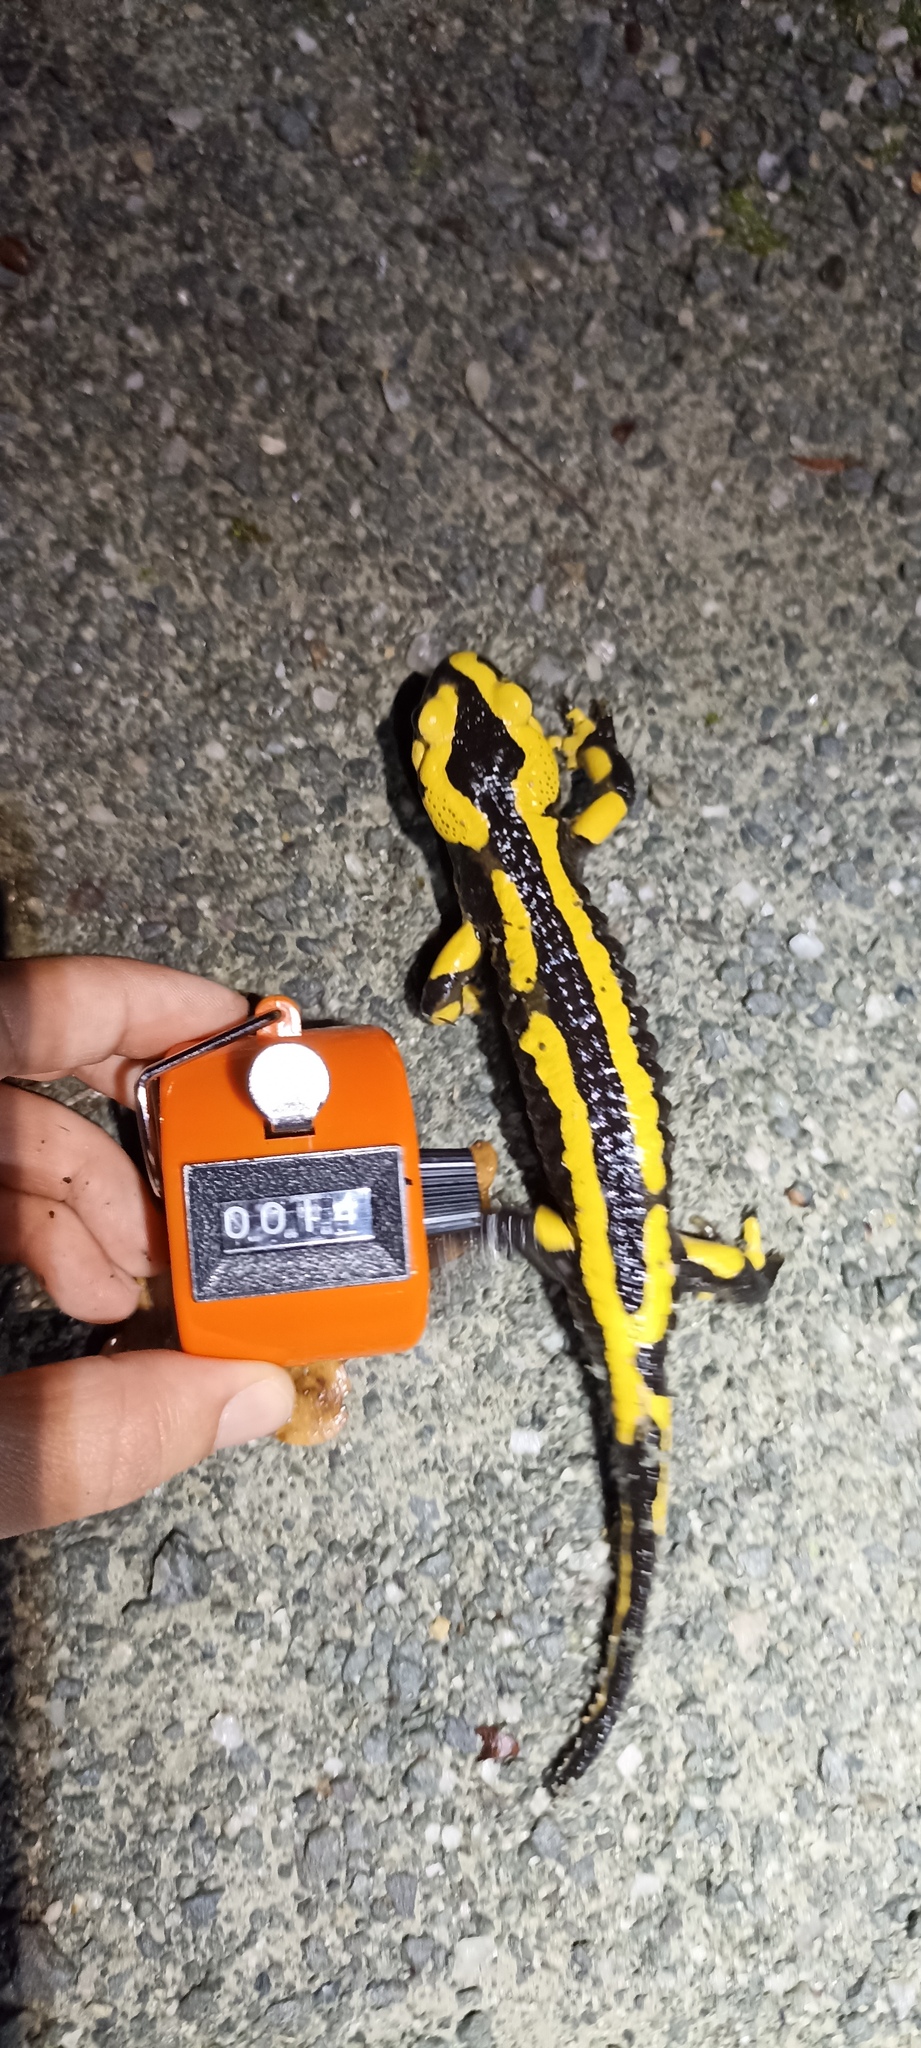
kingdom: Animalia
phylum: Chordata
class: Amphibia
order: Caudata
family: Salamandridae
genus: Salamandra
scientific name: Salamandra salamandra
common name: Fire salamander
